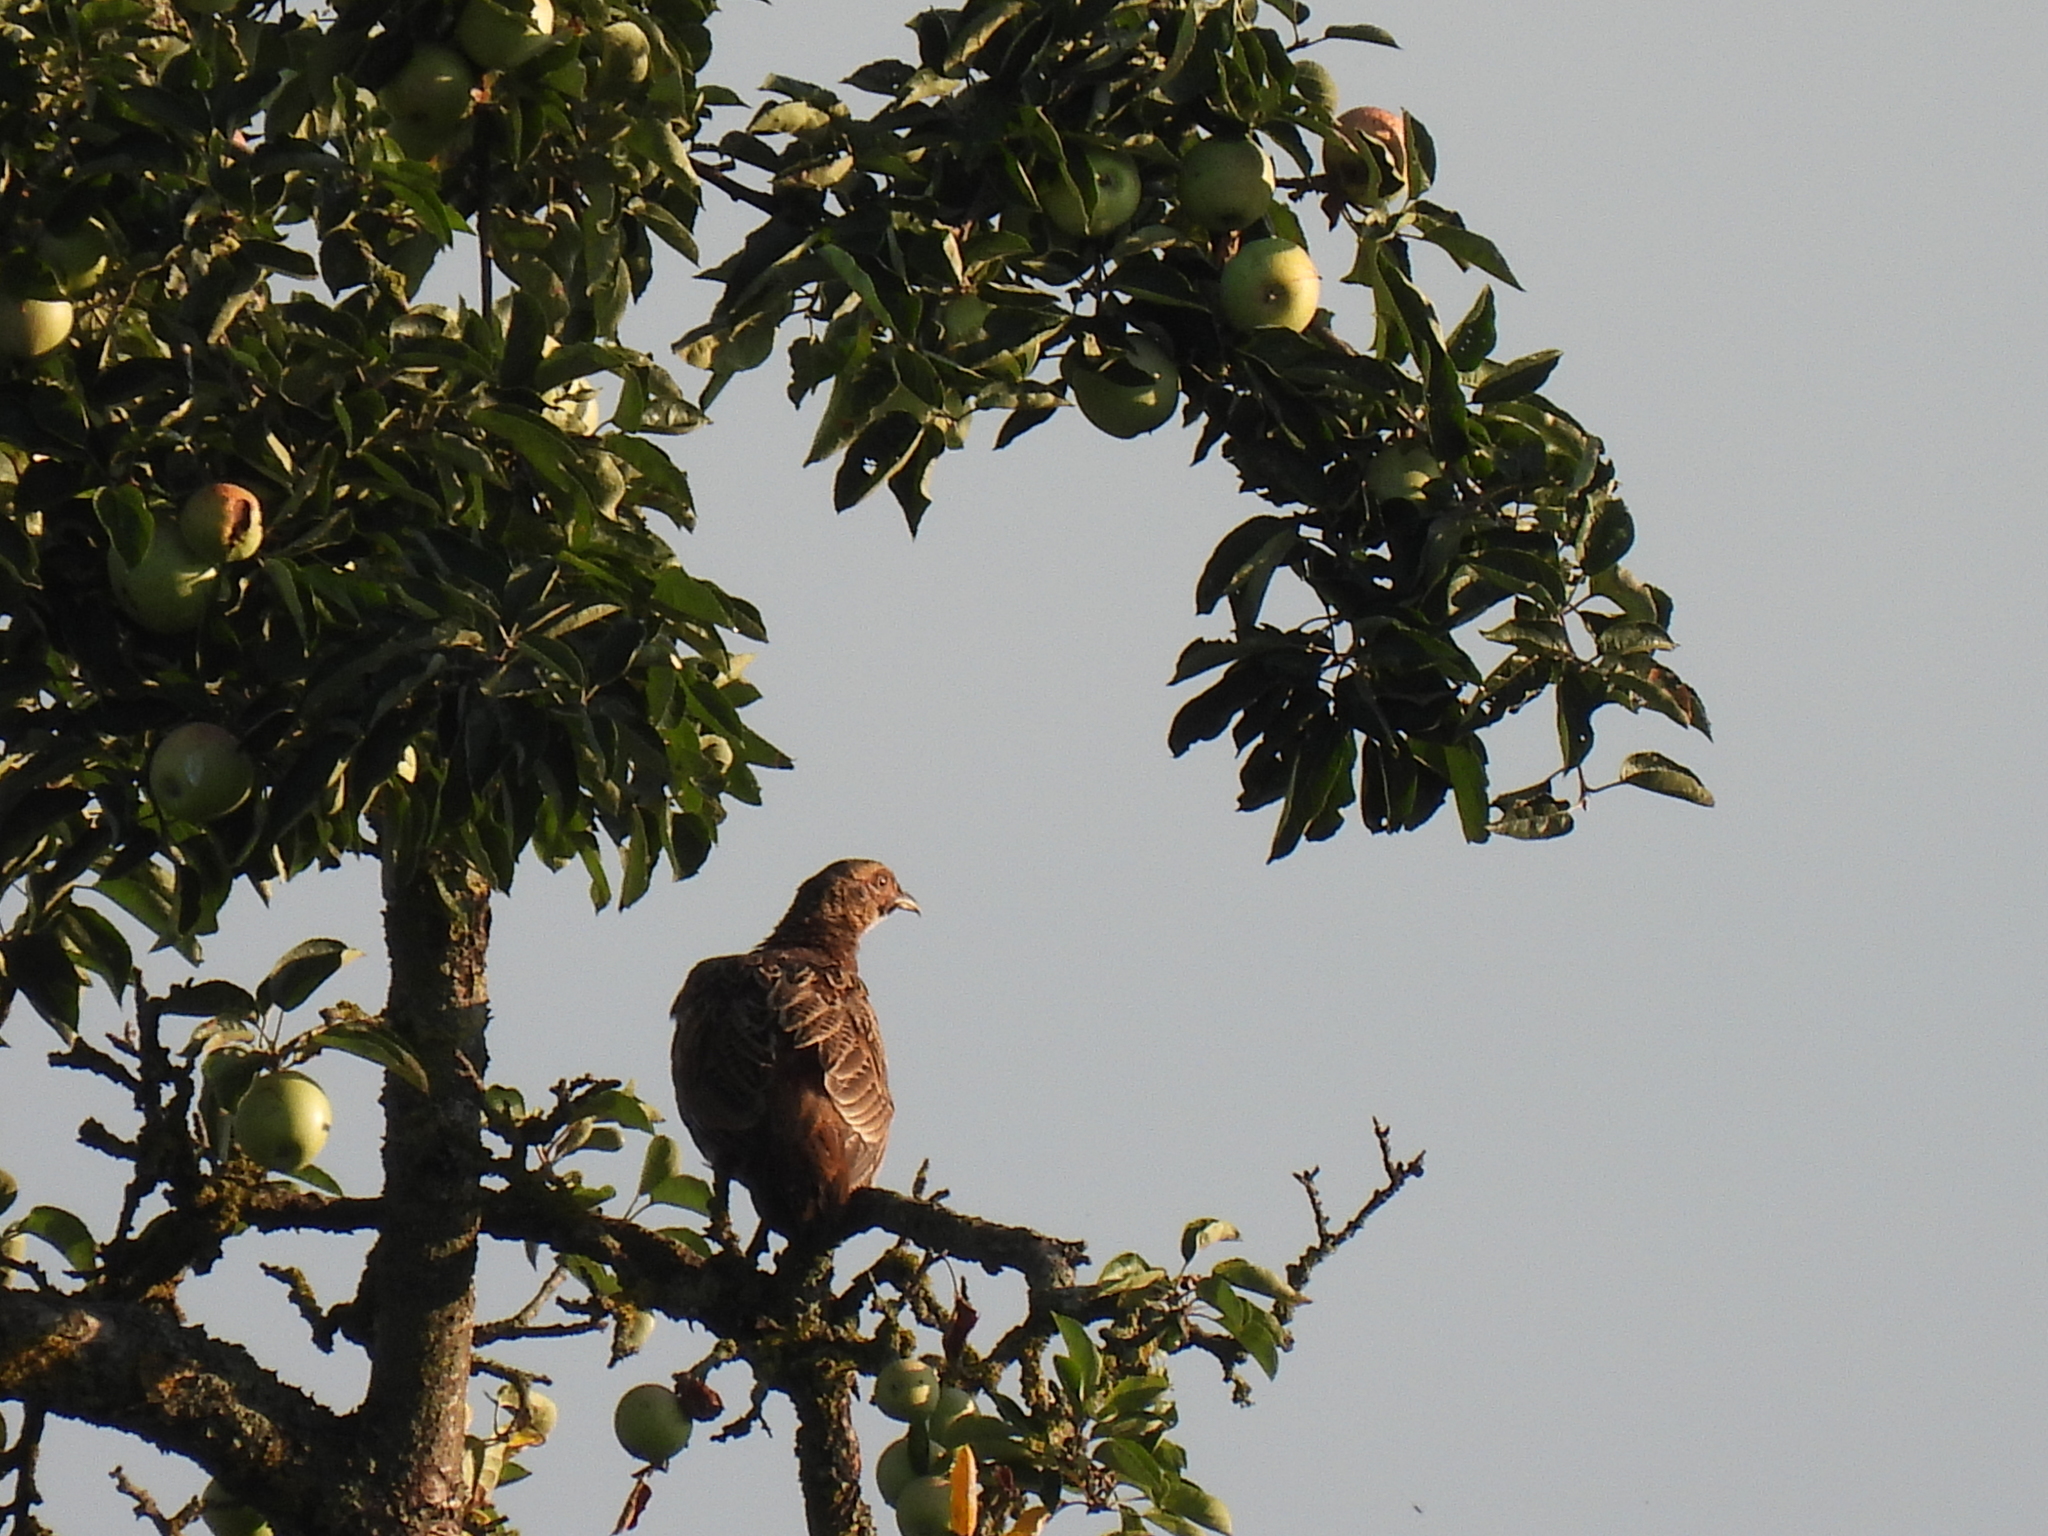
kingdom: Animalia
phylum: Chordata
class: Aves
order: Galliformes
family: Phasianidae
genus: Phasianus
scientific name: Phasianus colchicus
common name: Common pheasant
